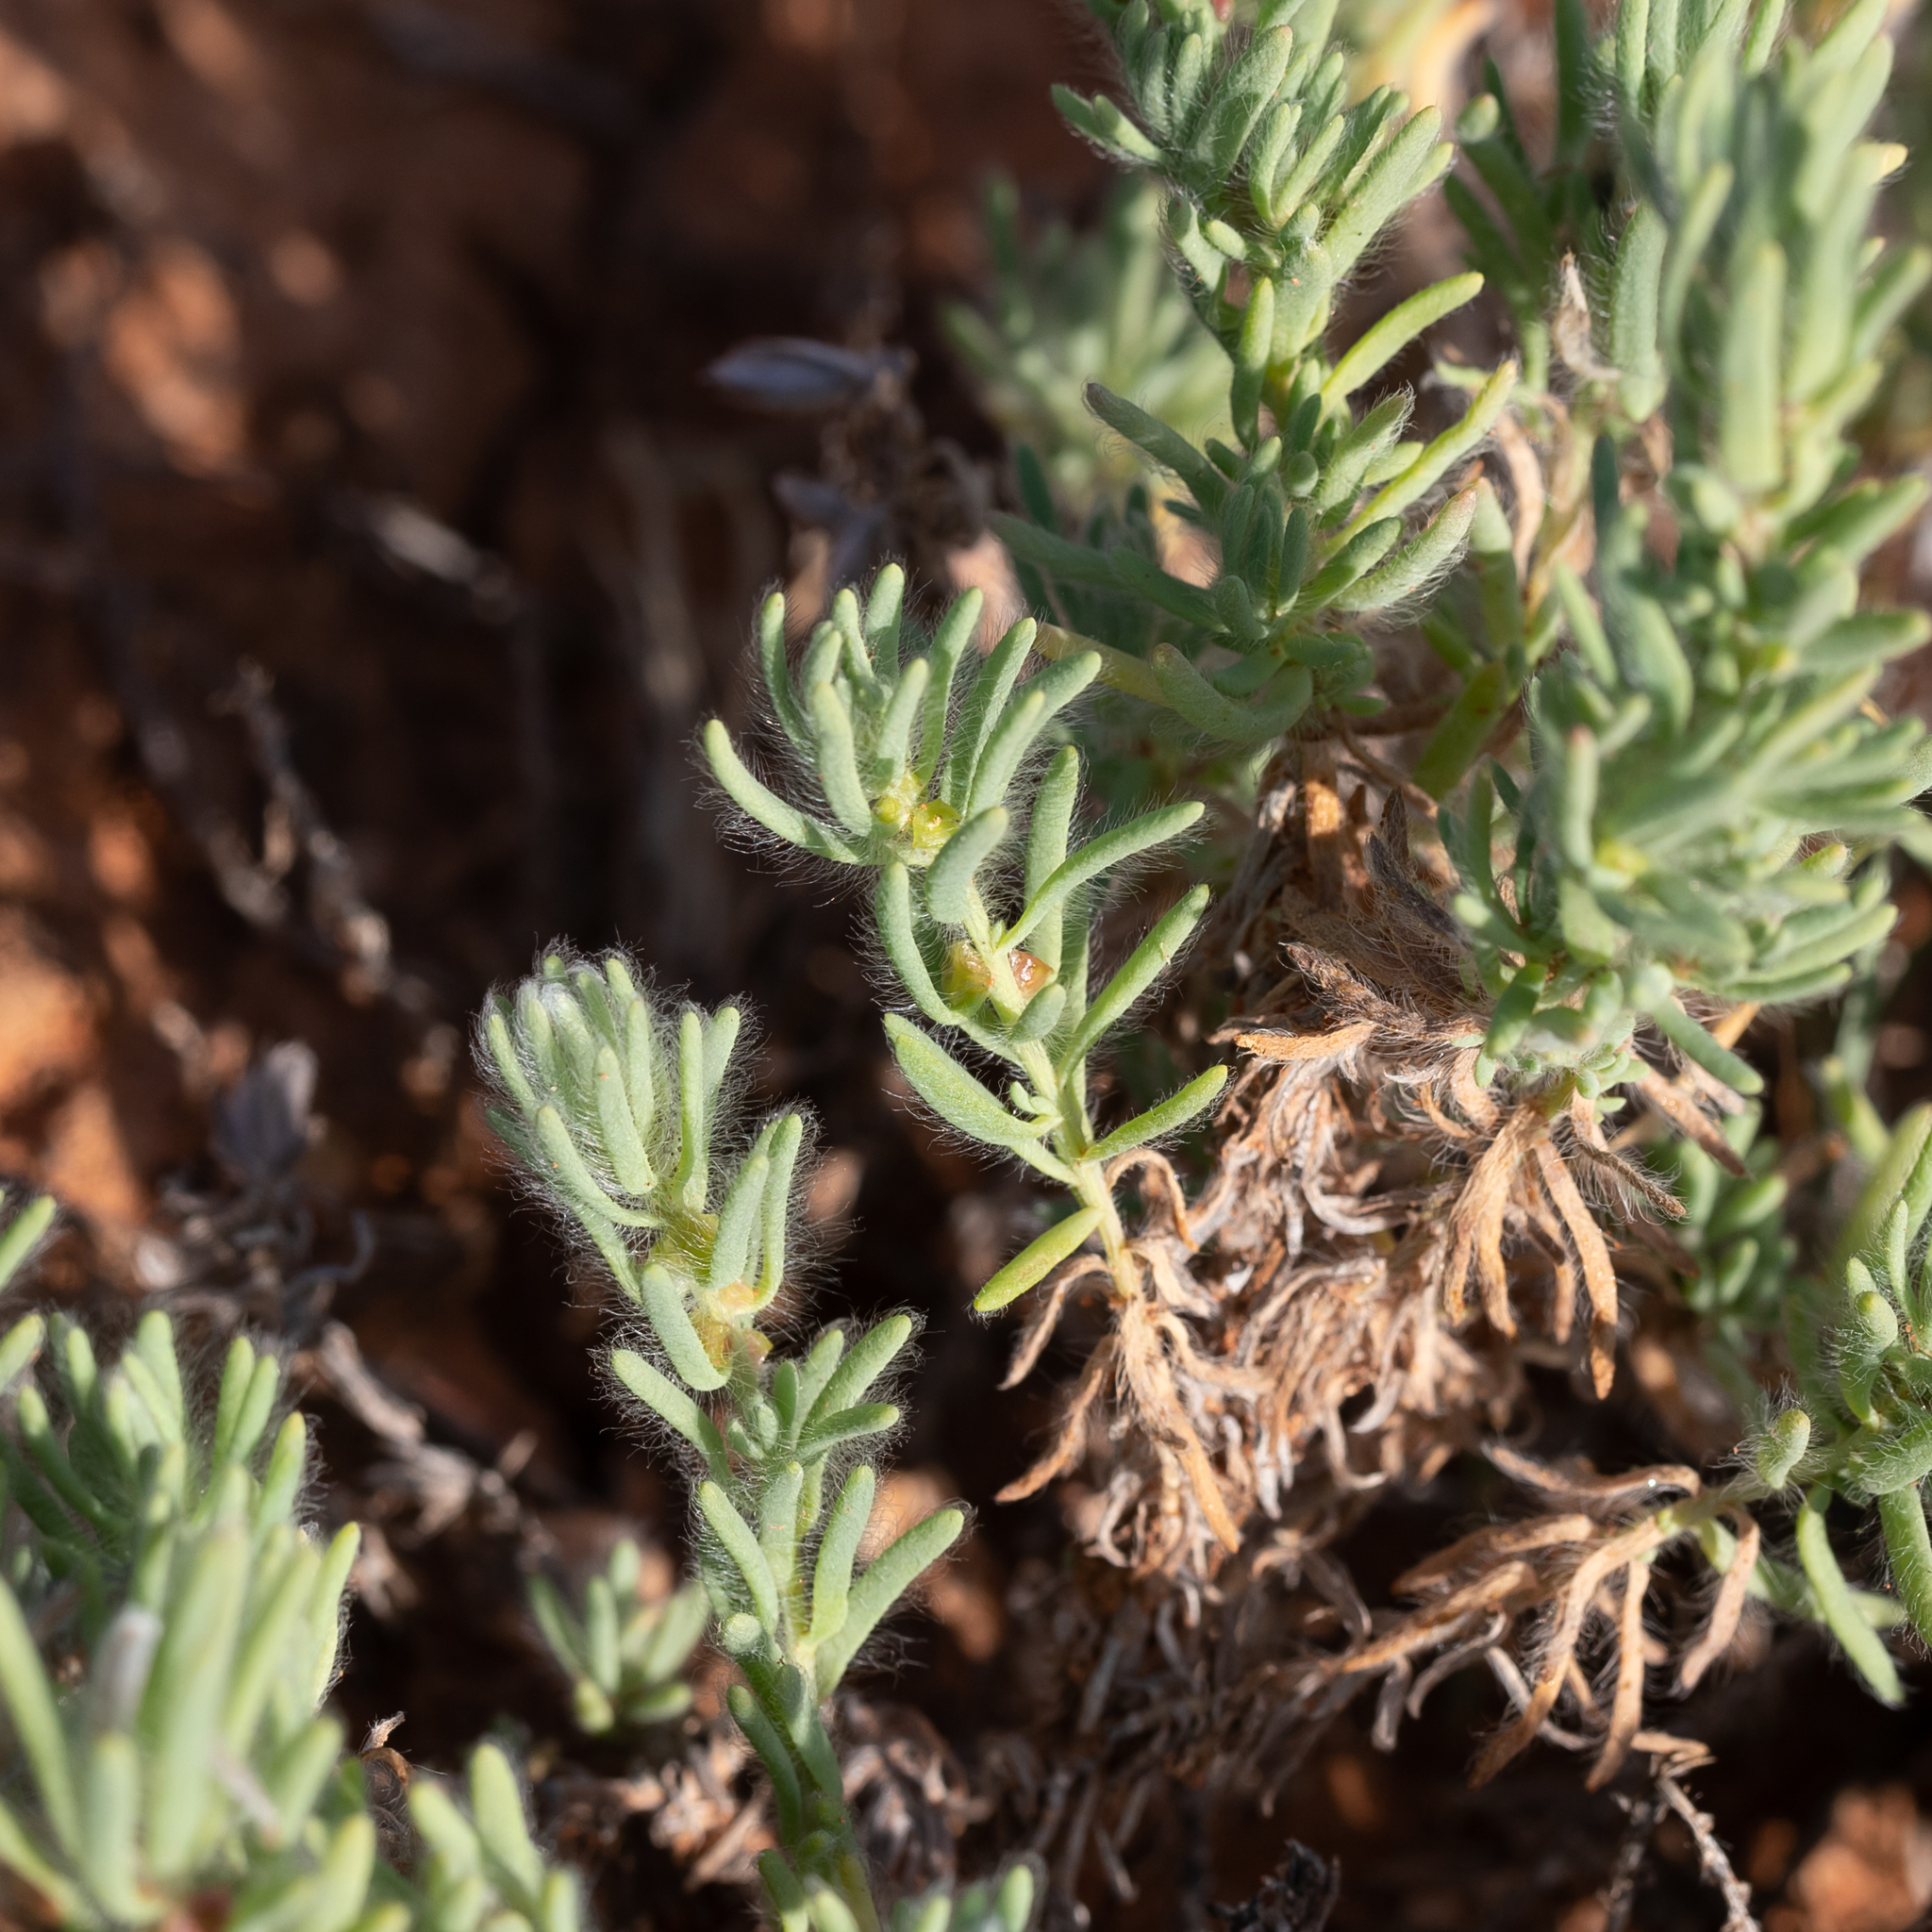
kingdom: Plantae
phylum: Tracheophyta
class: Magnoliopsida
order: Caryophyllales
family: Amaranthaceae
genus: Sclerolaena
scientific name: Sclerolaena brachyptera
